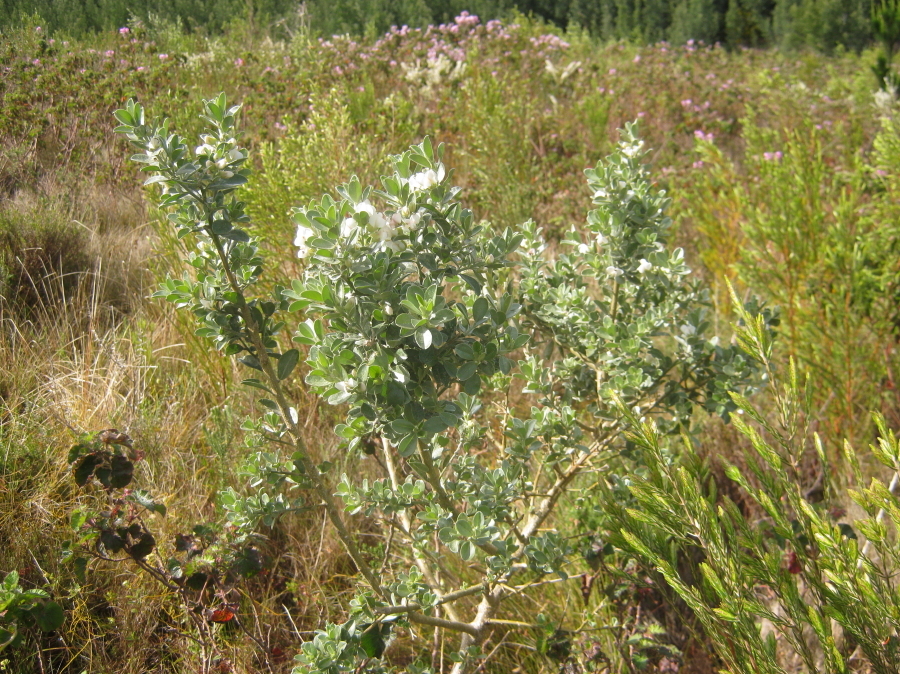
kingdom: Plantae
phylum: Tracheophyta
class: Magnoliopsida
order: Fabales
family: Fabaceae
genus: Podalyria
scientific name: Podalyria myrtillifolia
